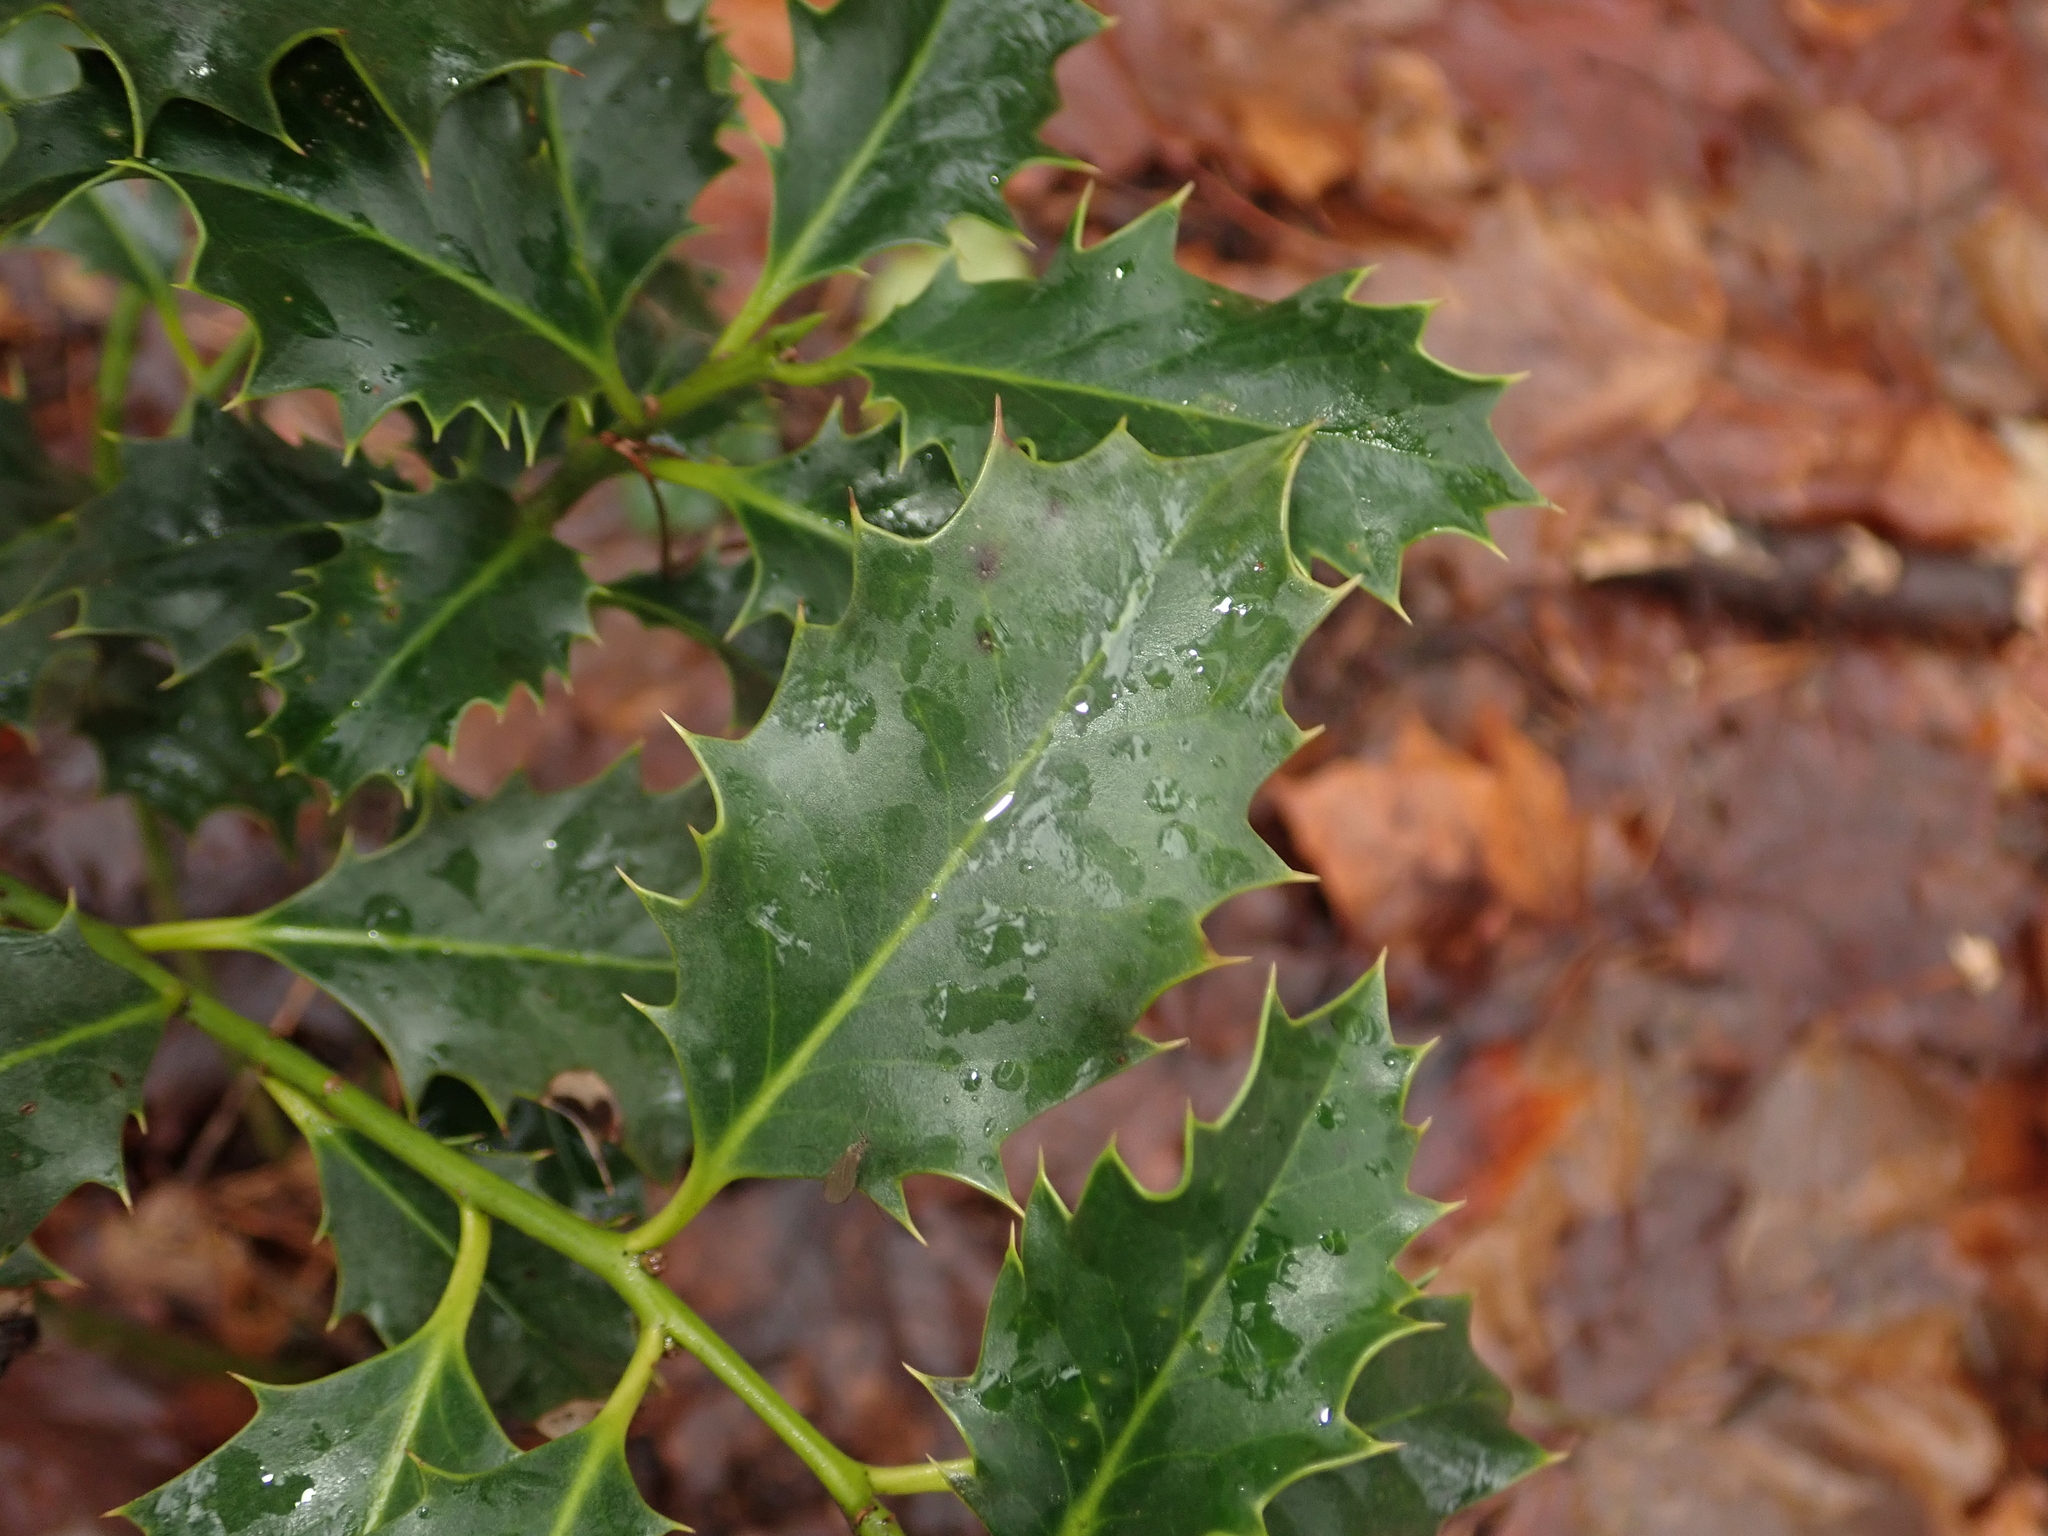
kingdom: Plantae
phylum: Tracheophyta
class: Magnoliopsida
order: Aquifoliales
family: Aquifoliaceae
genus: Ilex
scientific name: Ilex aquifolium
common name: English holly
